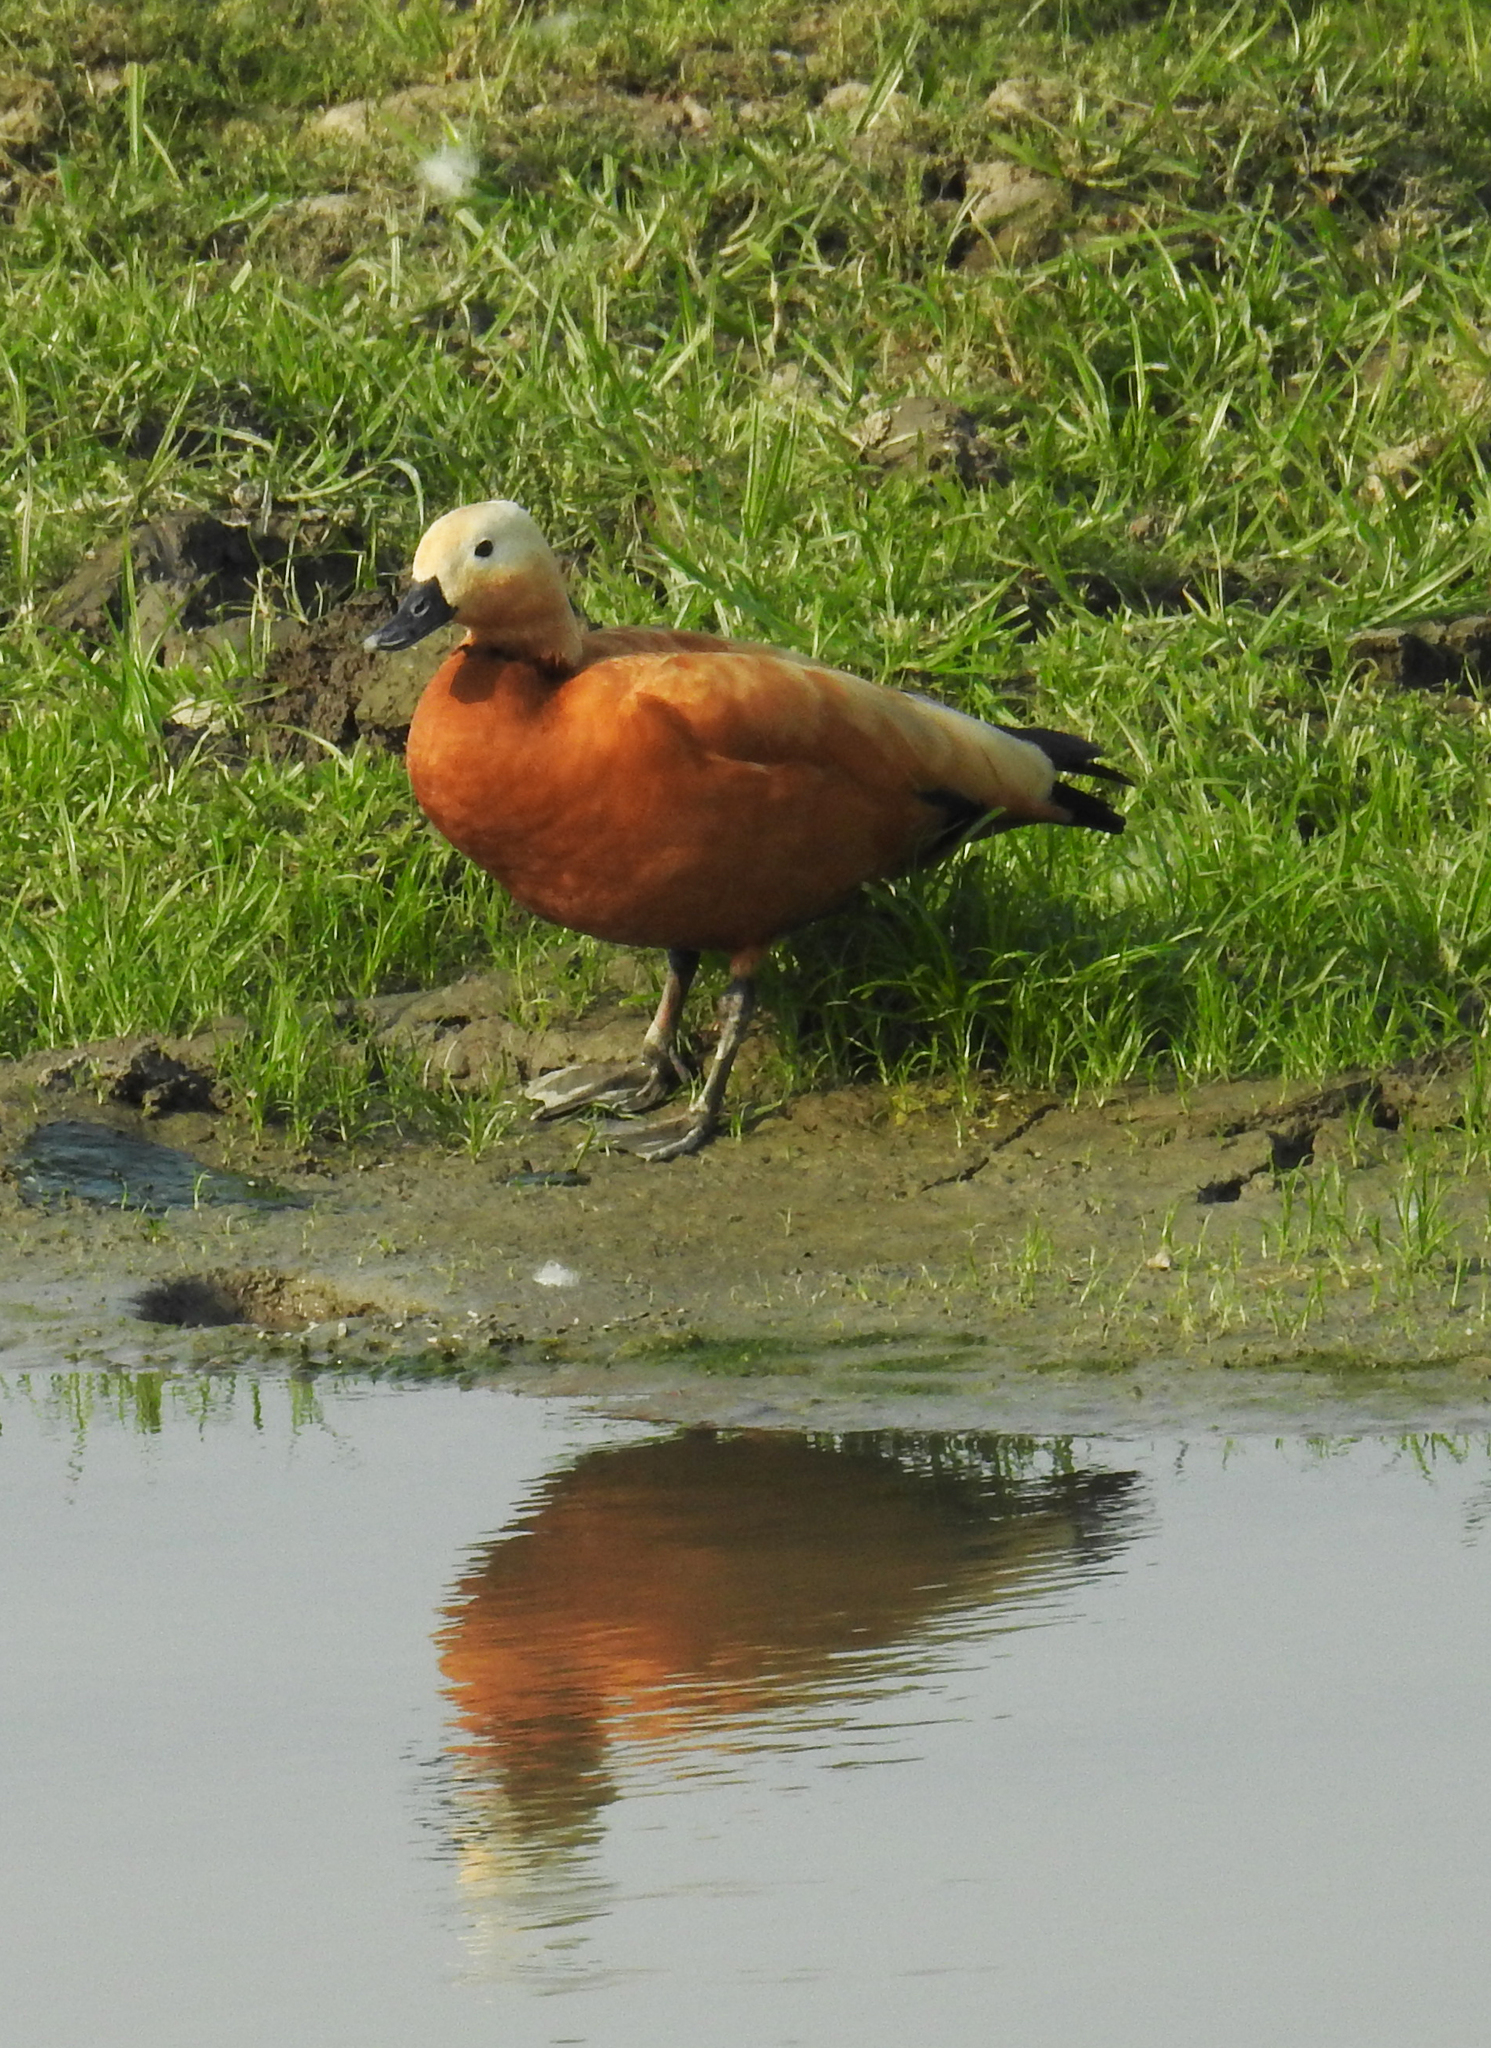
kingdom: Animalia
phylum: Chordata
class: Aves
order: Anseriformes
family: Anatidae
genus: Tadorna
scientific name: Tadorna ferruginea
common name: Ruddy shelduck
